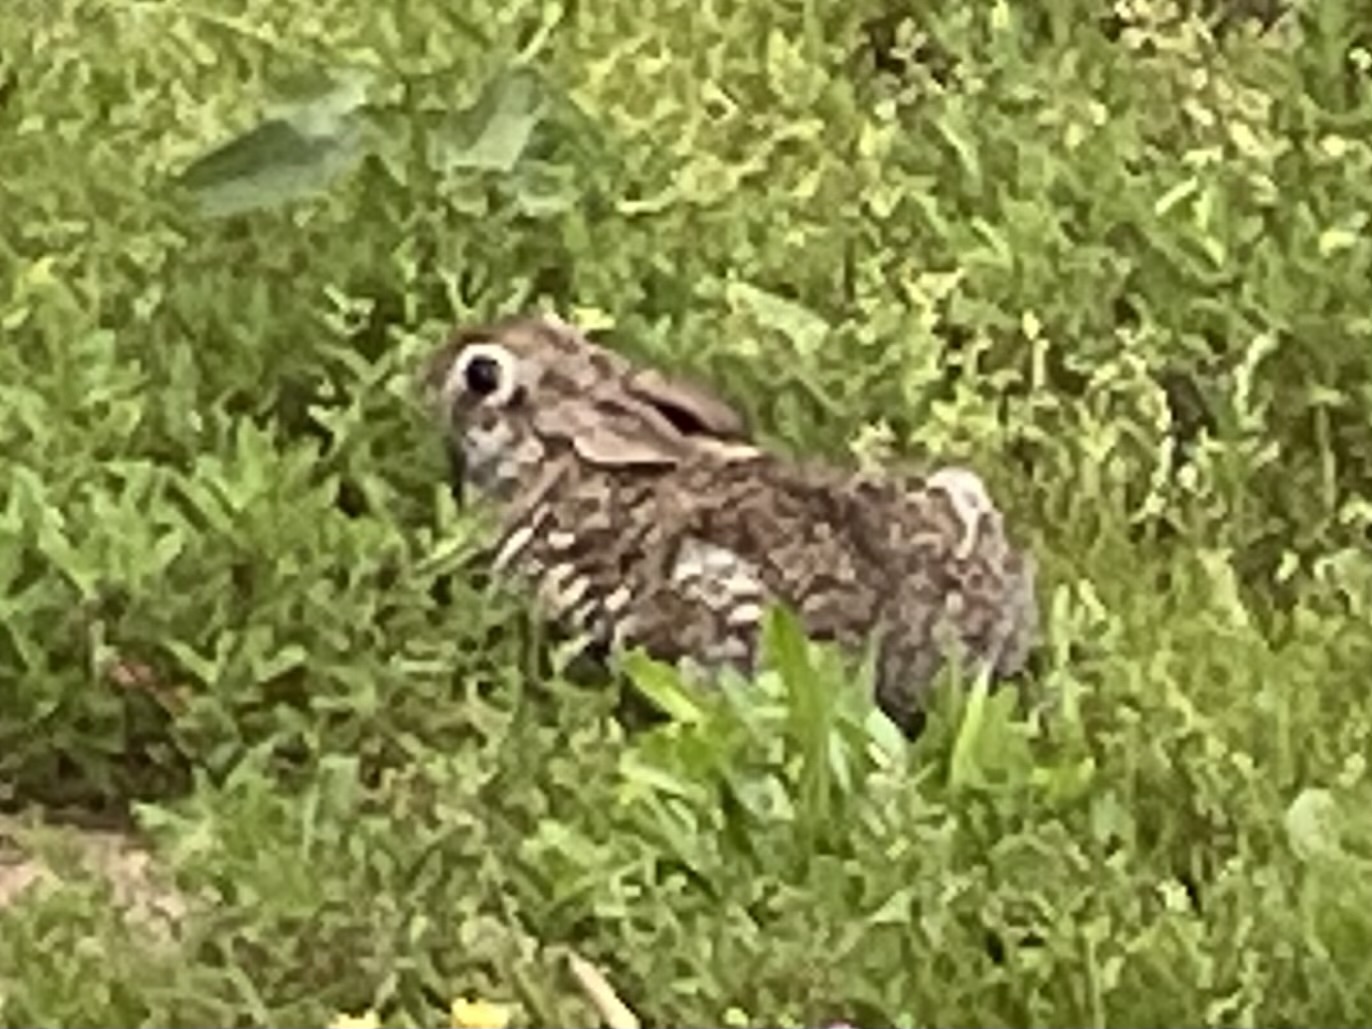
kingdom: Animalia
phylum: Chordata
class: Mammalia
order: Lagomorpha
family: Leporidae
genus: Sylvilagus
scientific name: Sylvilagus floridanus
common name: Eastern cottontail
